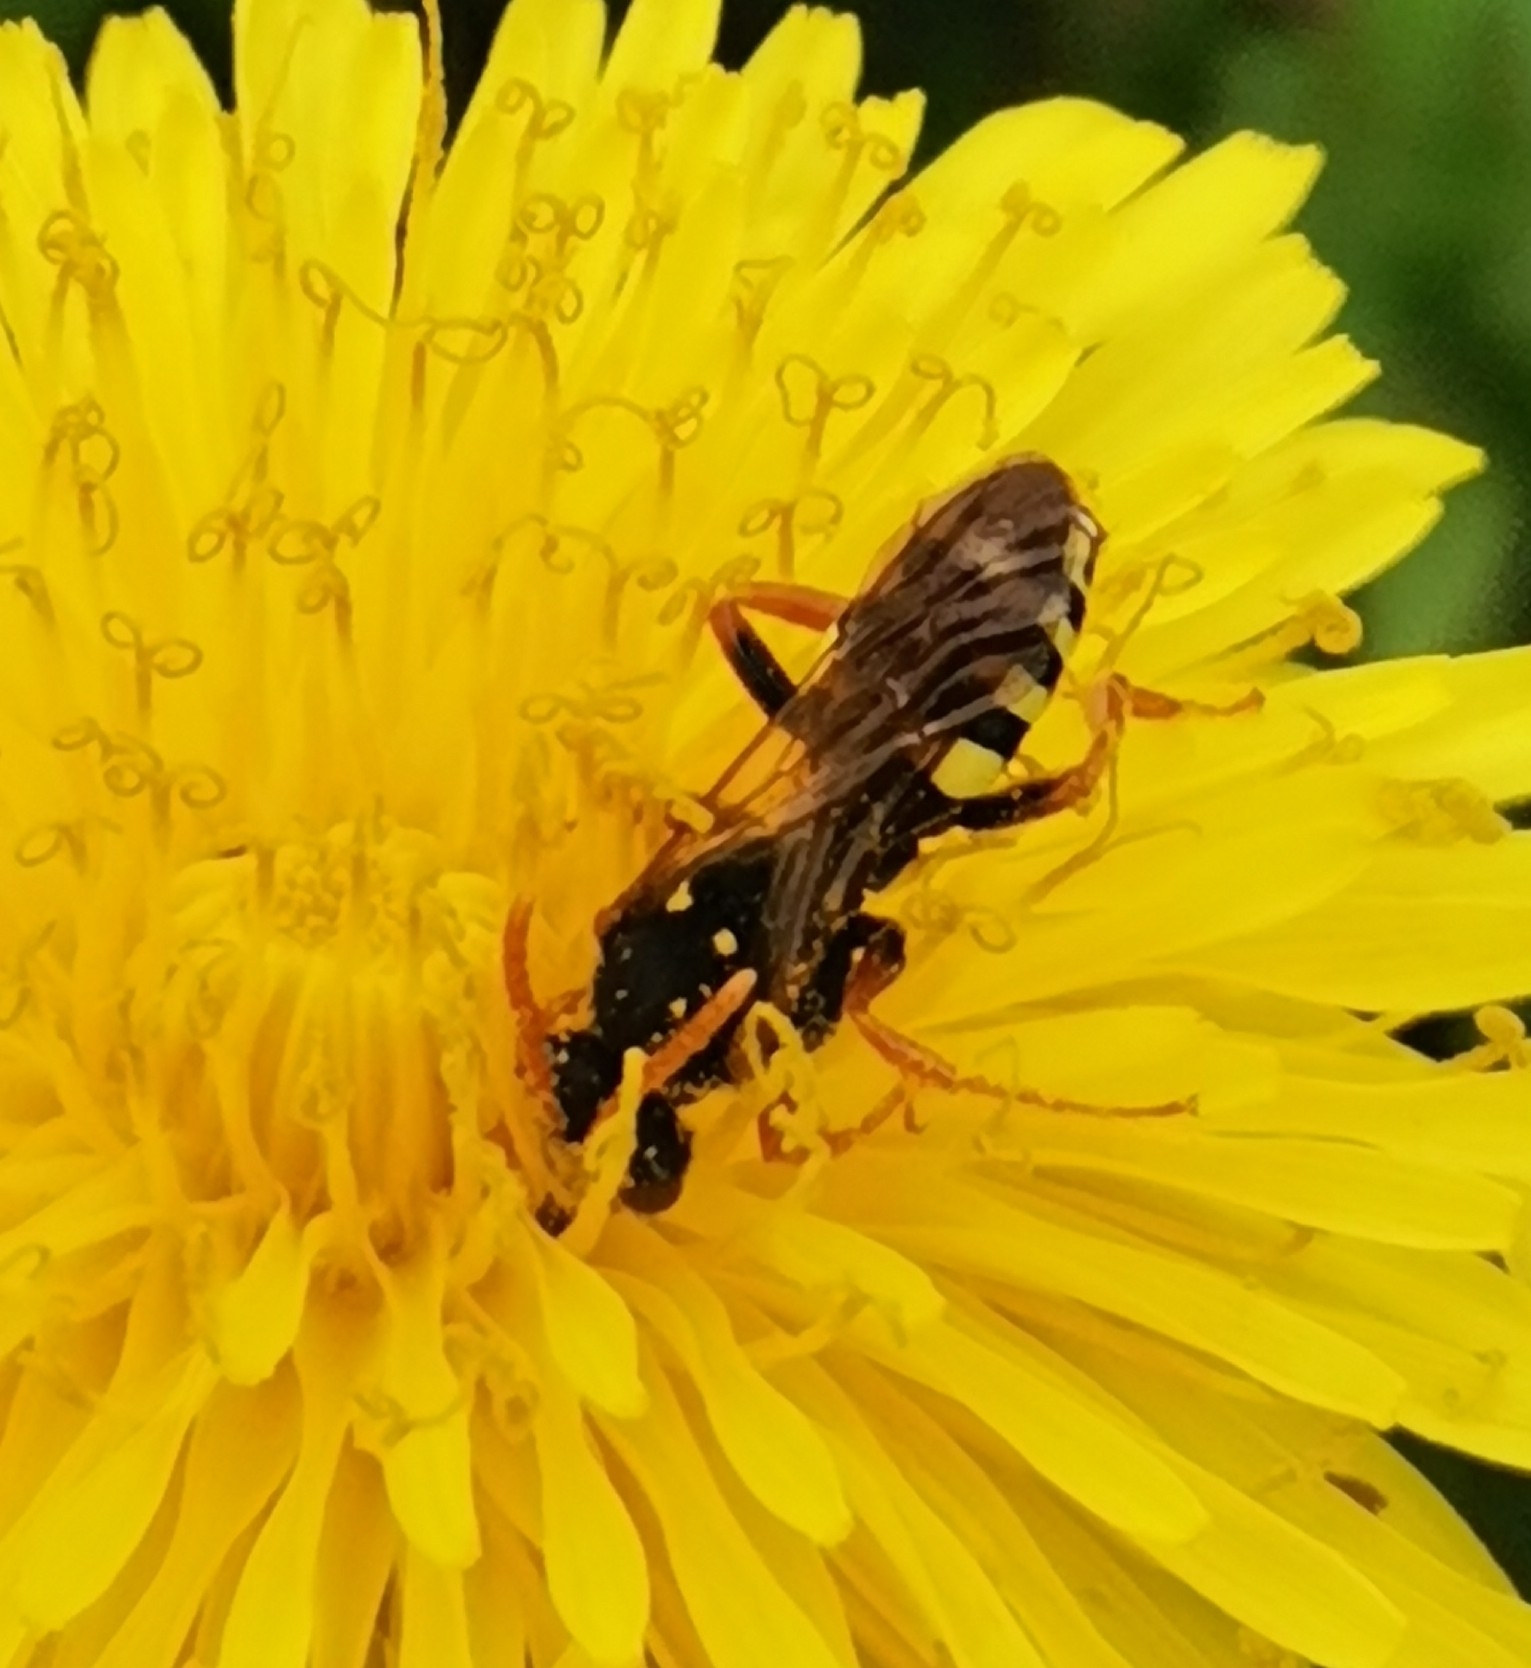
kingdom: Animalia
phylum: Arthropoda
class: Insecta
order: Hymenoptera
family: Apidae
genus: Nomada
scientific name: Nomada goodeniana
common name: Gooden's nomad bee
